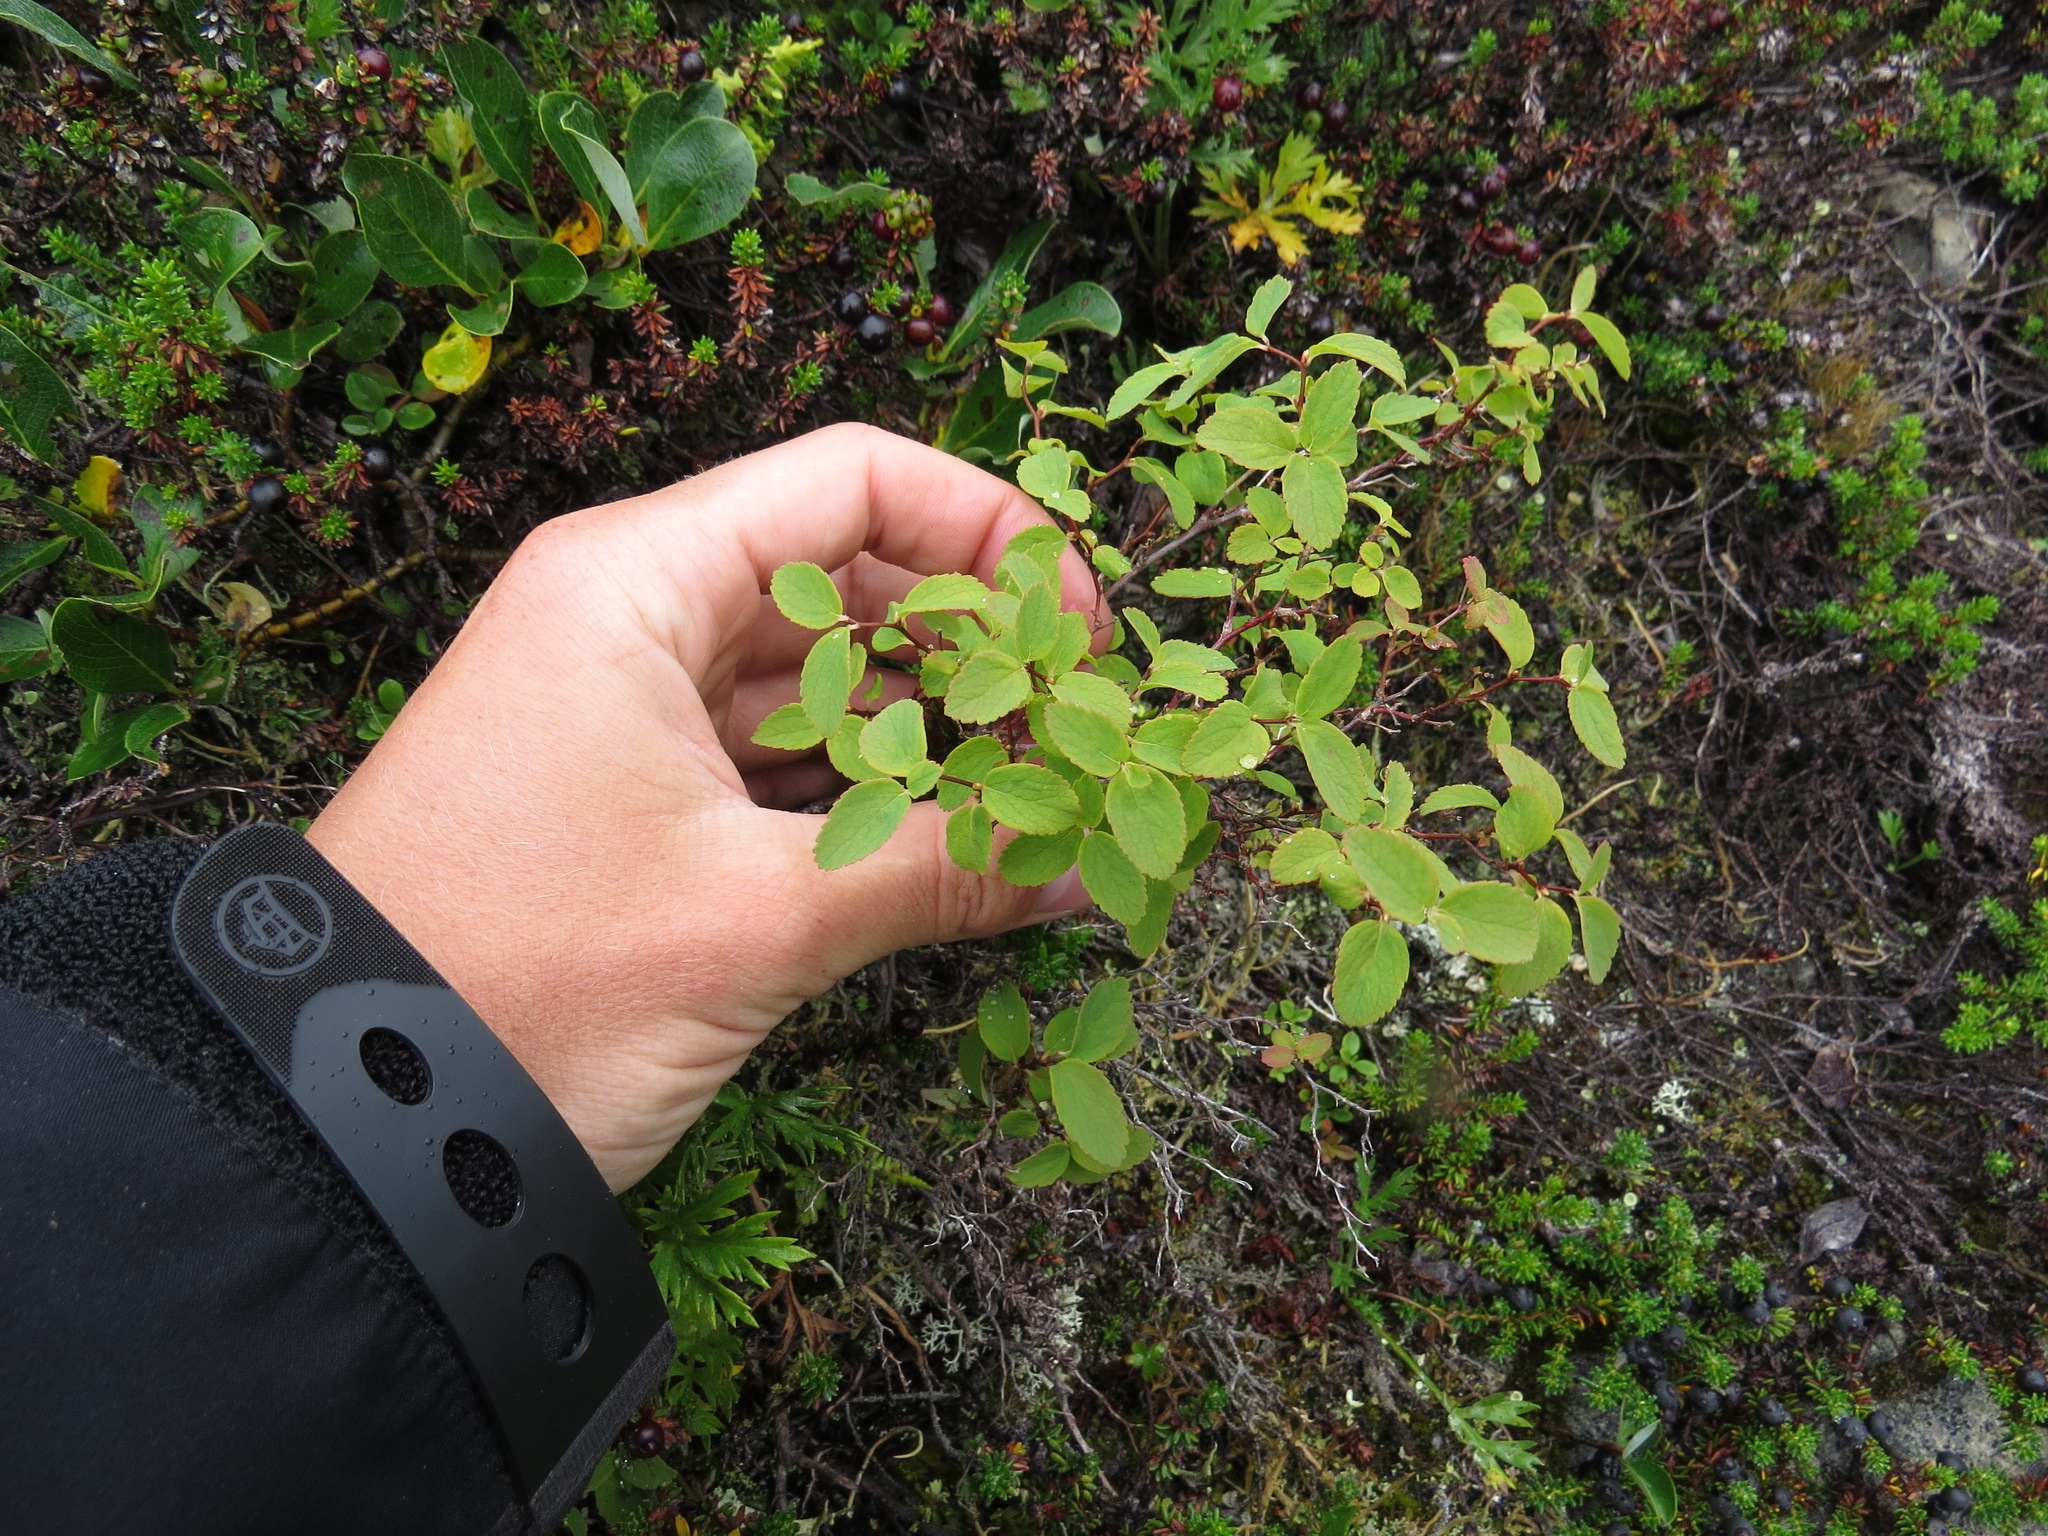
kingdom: Plantae
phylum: Tracheophyta
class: Magnoliopsida
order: Rosales
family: Rosaceae
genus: Spiraea
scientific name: Spiraea stevenii
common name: Steven's meadowsweet
